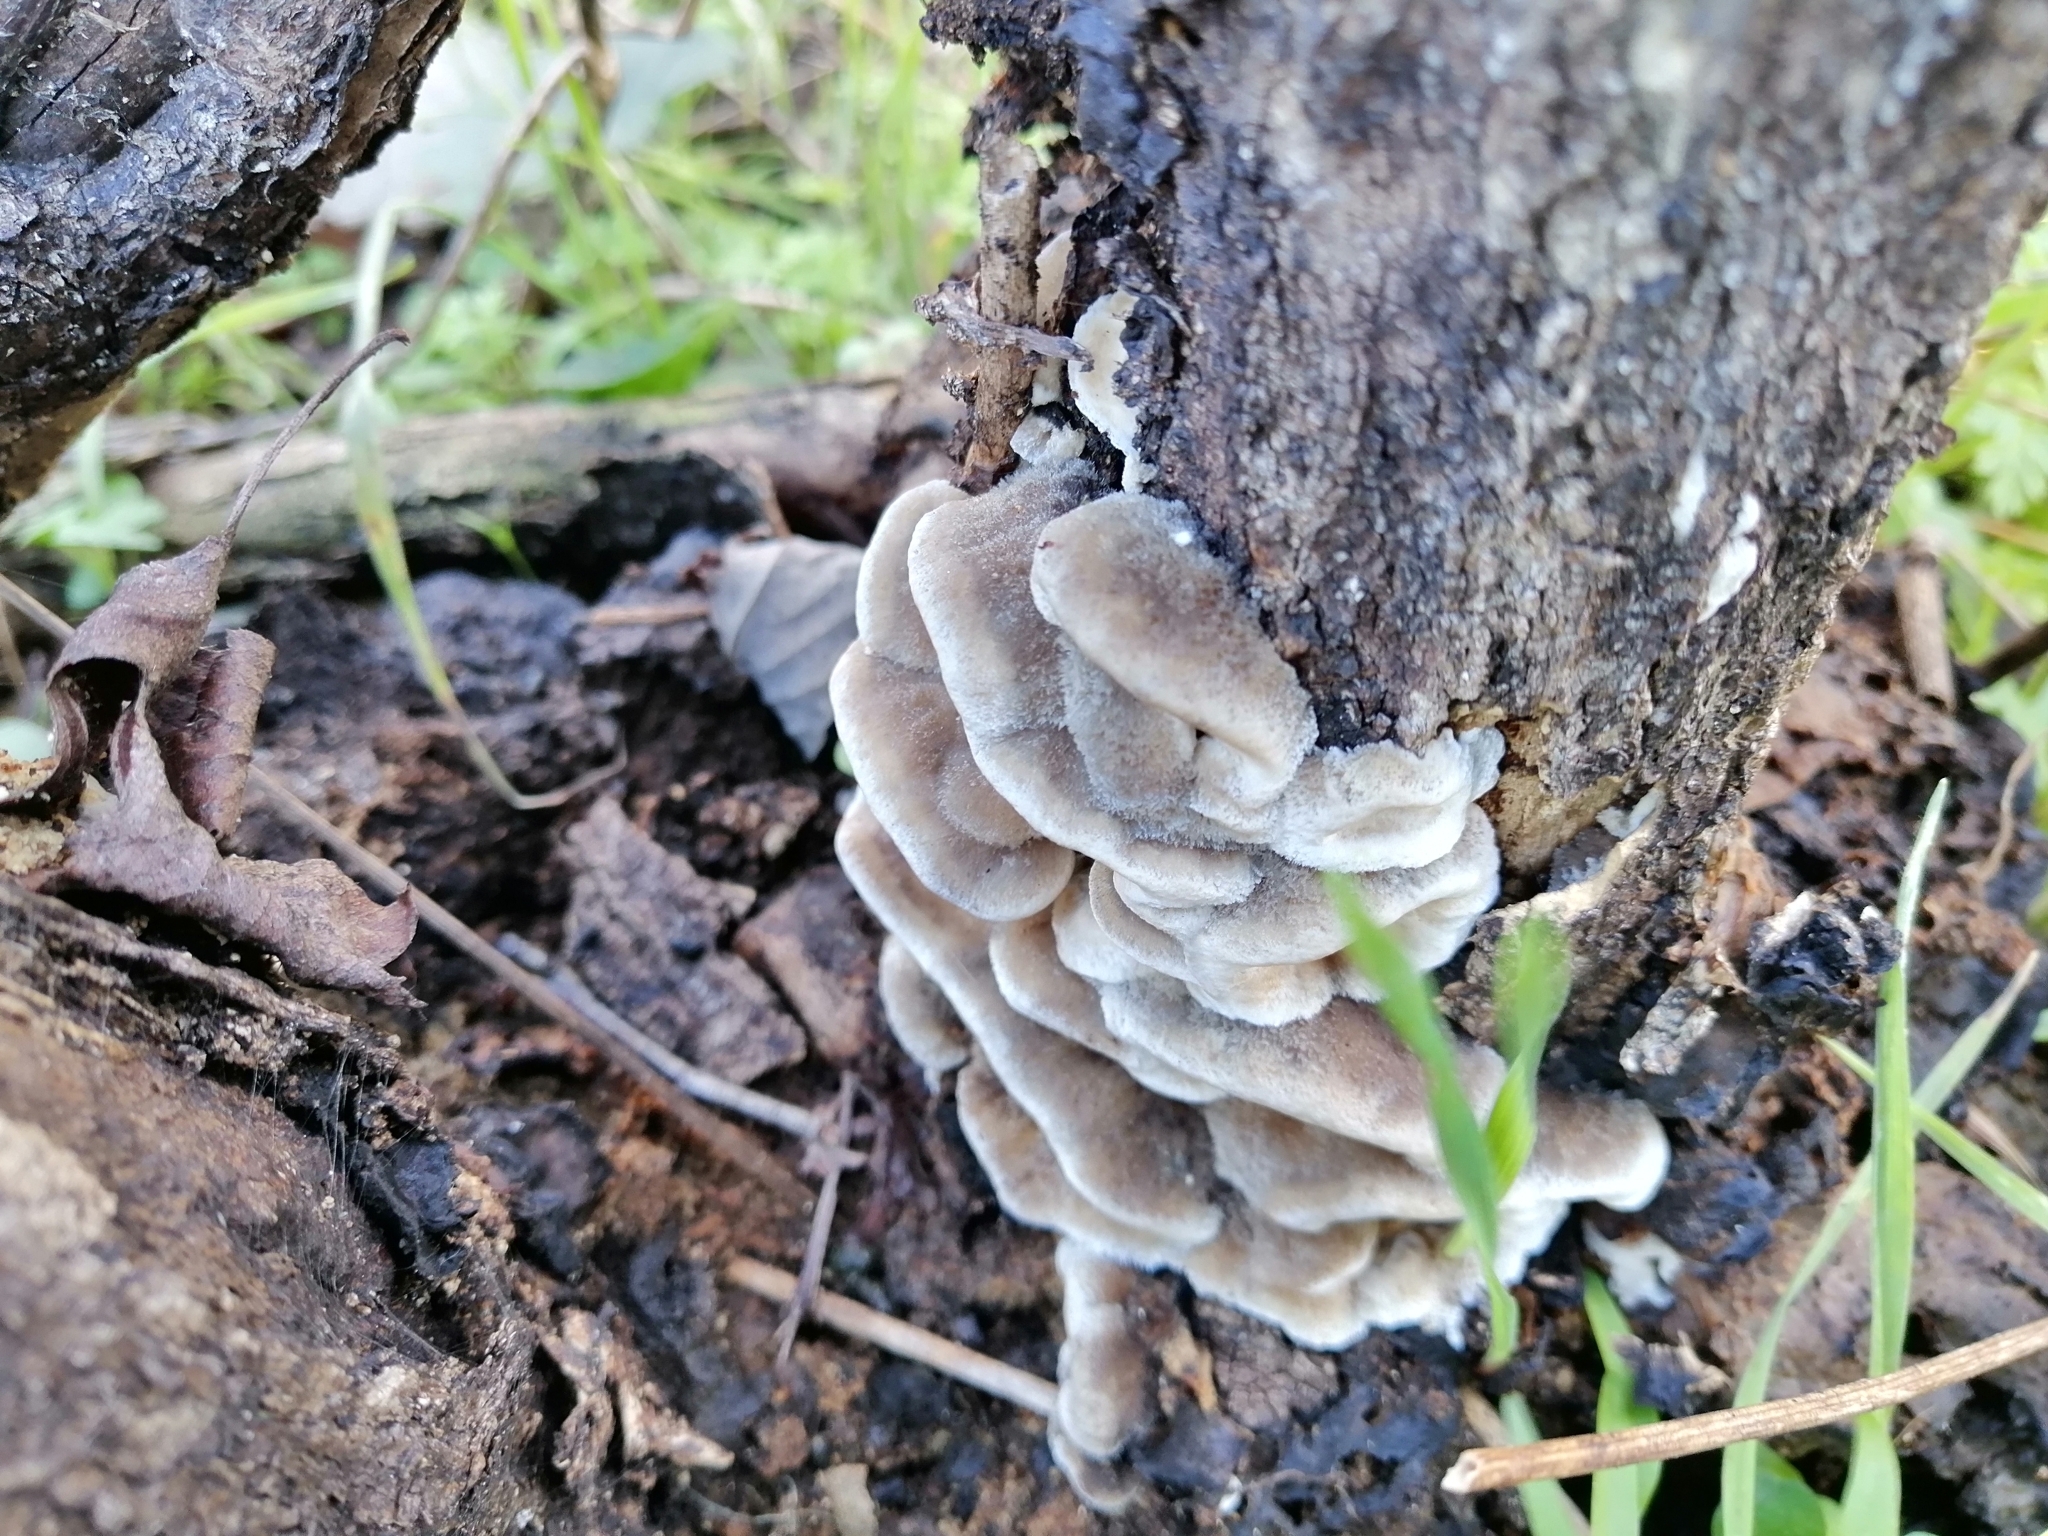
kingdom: Fungi
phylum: Basidiomycota
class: Agaricomycetes
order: Polyporales
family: Phanerochaetaceae
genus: Bjerkandera
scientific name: Bjerkandera adusta
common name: Smoky bracket
